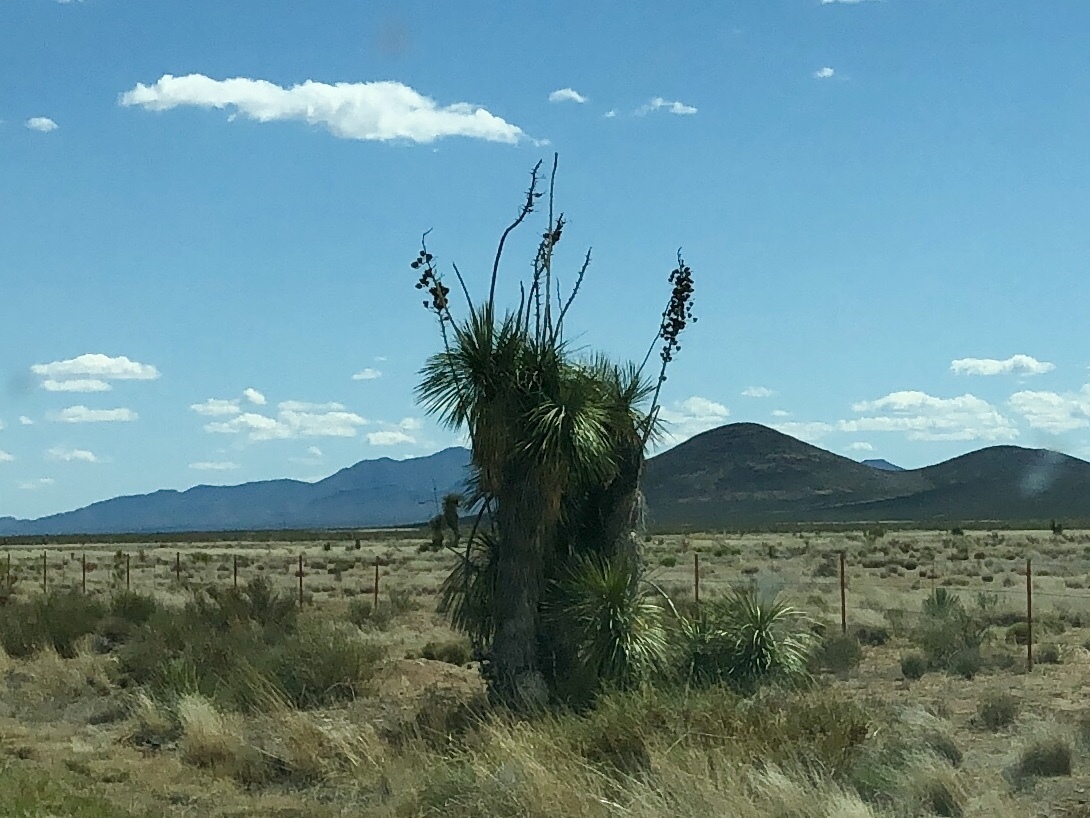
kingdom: Plantae
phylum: Tracheophyta
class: Liliopsida
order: Asparagales
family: Asparagaceae
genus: Yucca
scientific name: Yucca elata
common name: Palmella
